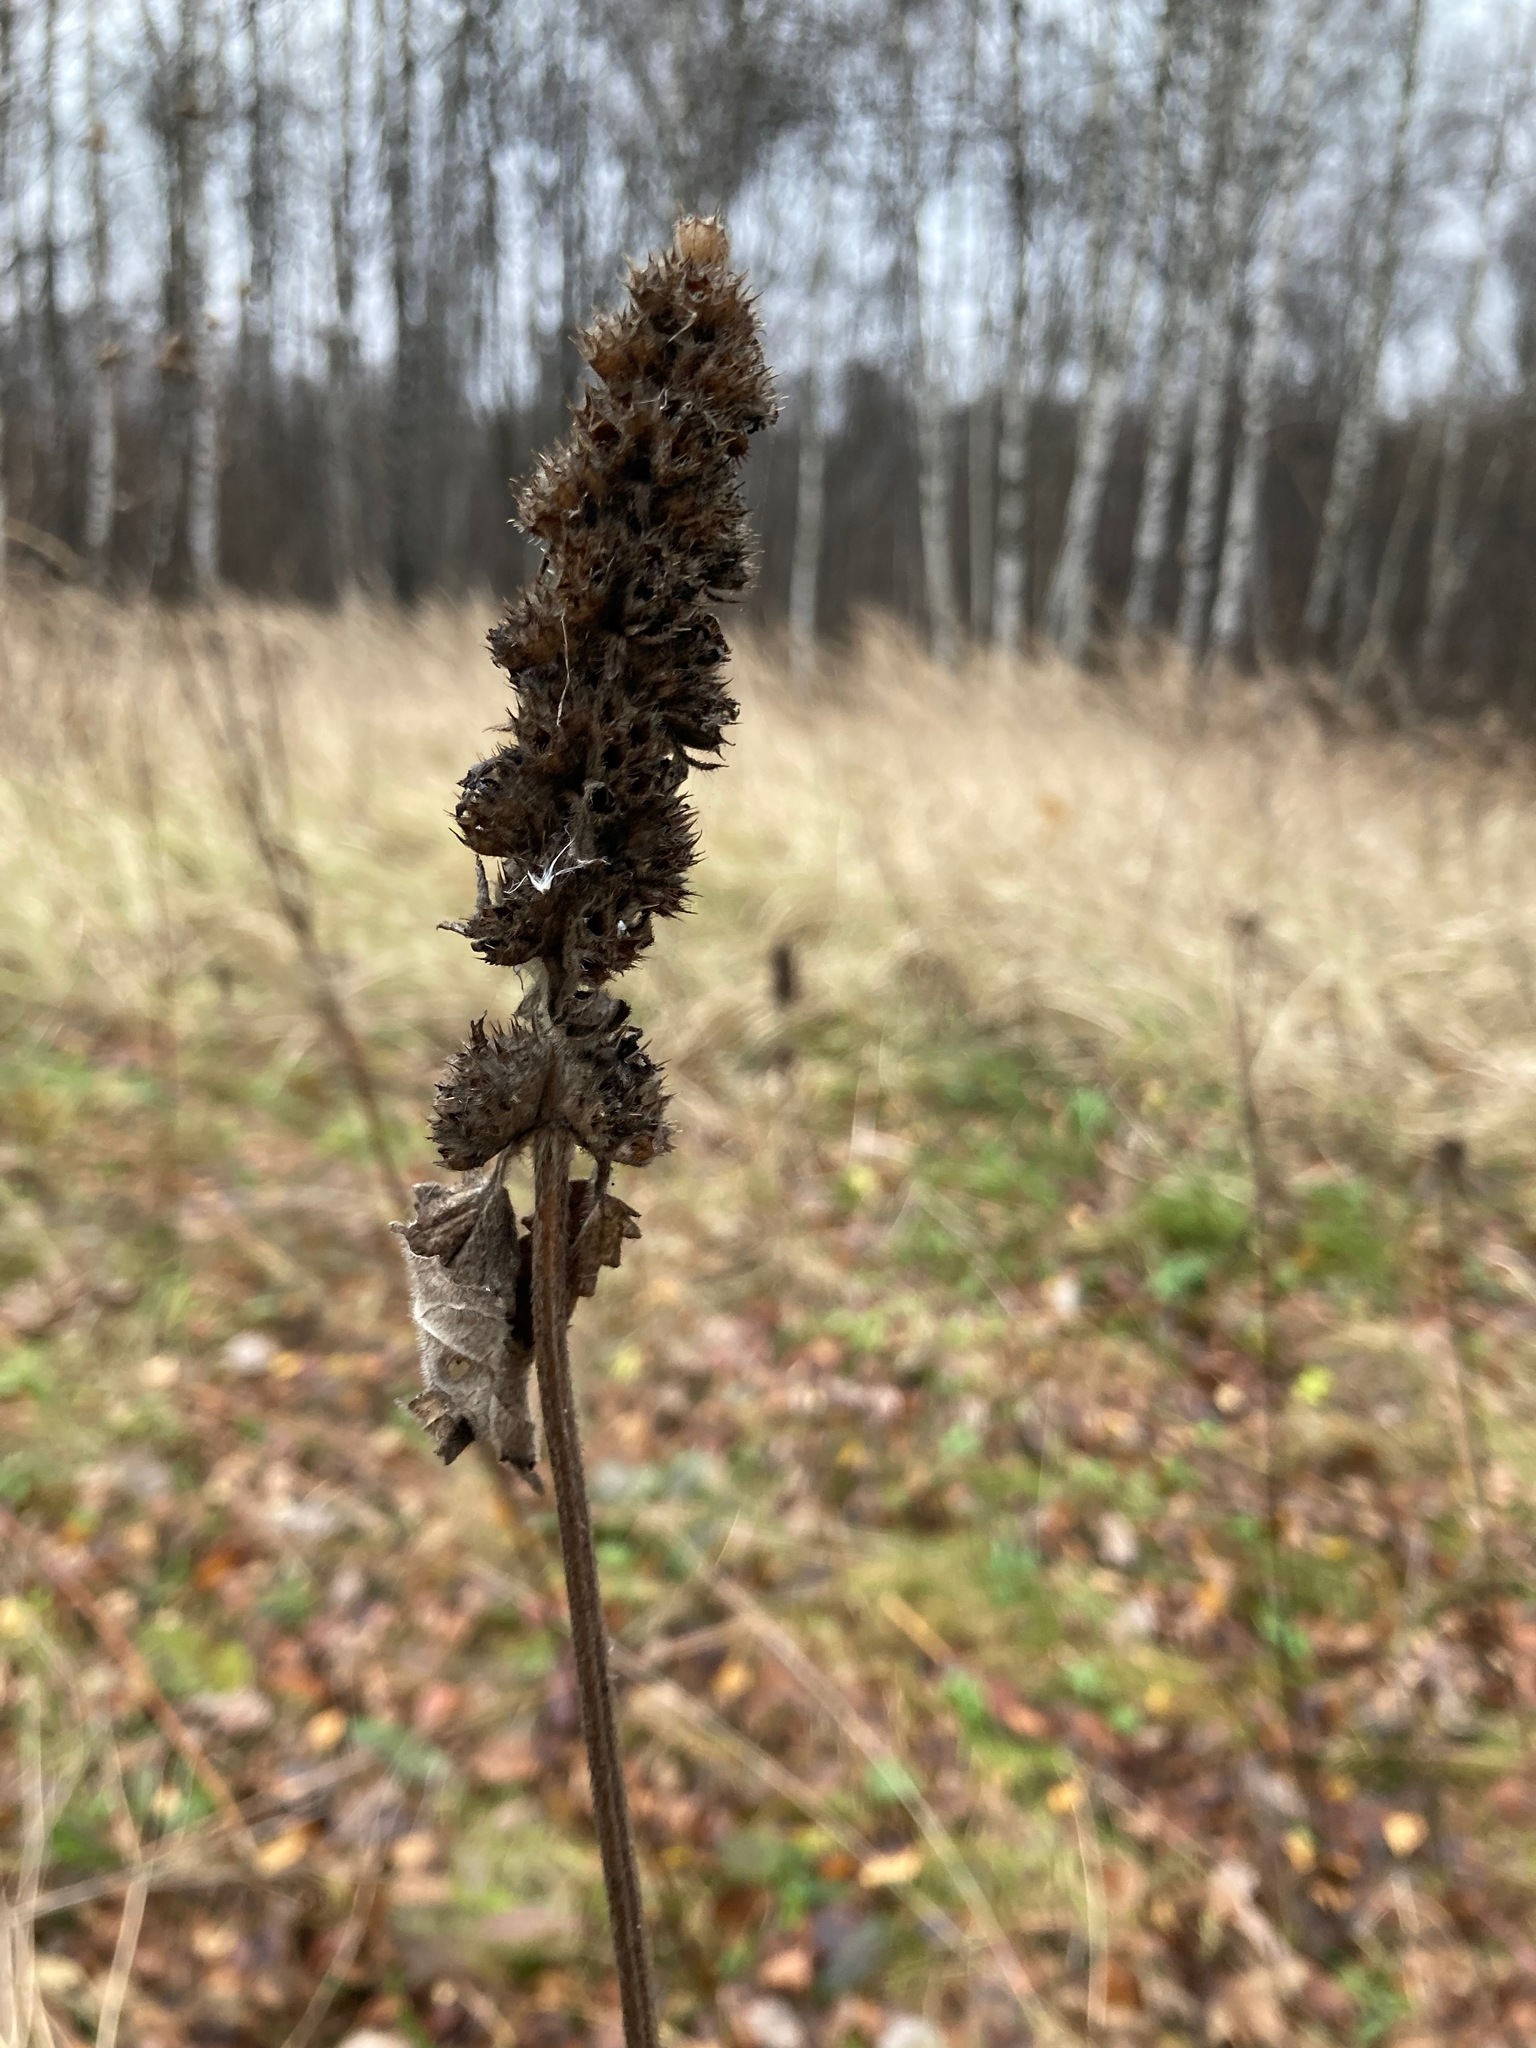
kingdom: Plantae
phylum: Tracheophyta
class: Magnoliopsida
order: Lamiales
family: Lamiaceae
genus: Betonica
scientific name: Betonica officinalis
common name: Bishop's-wort
